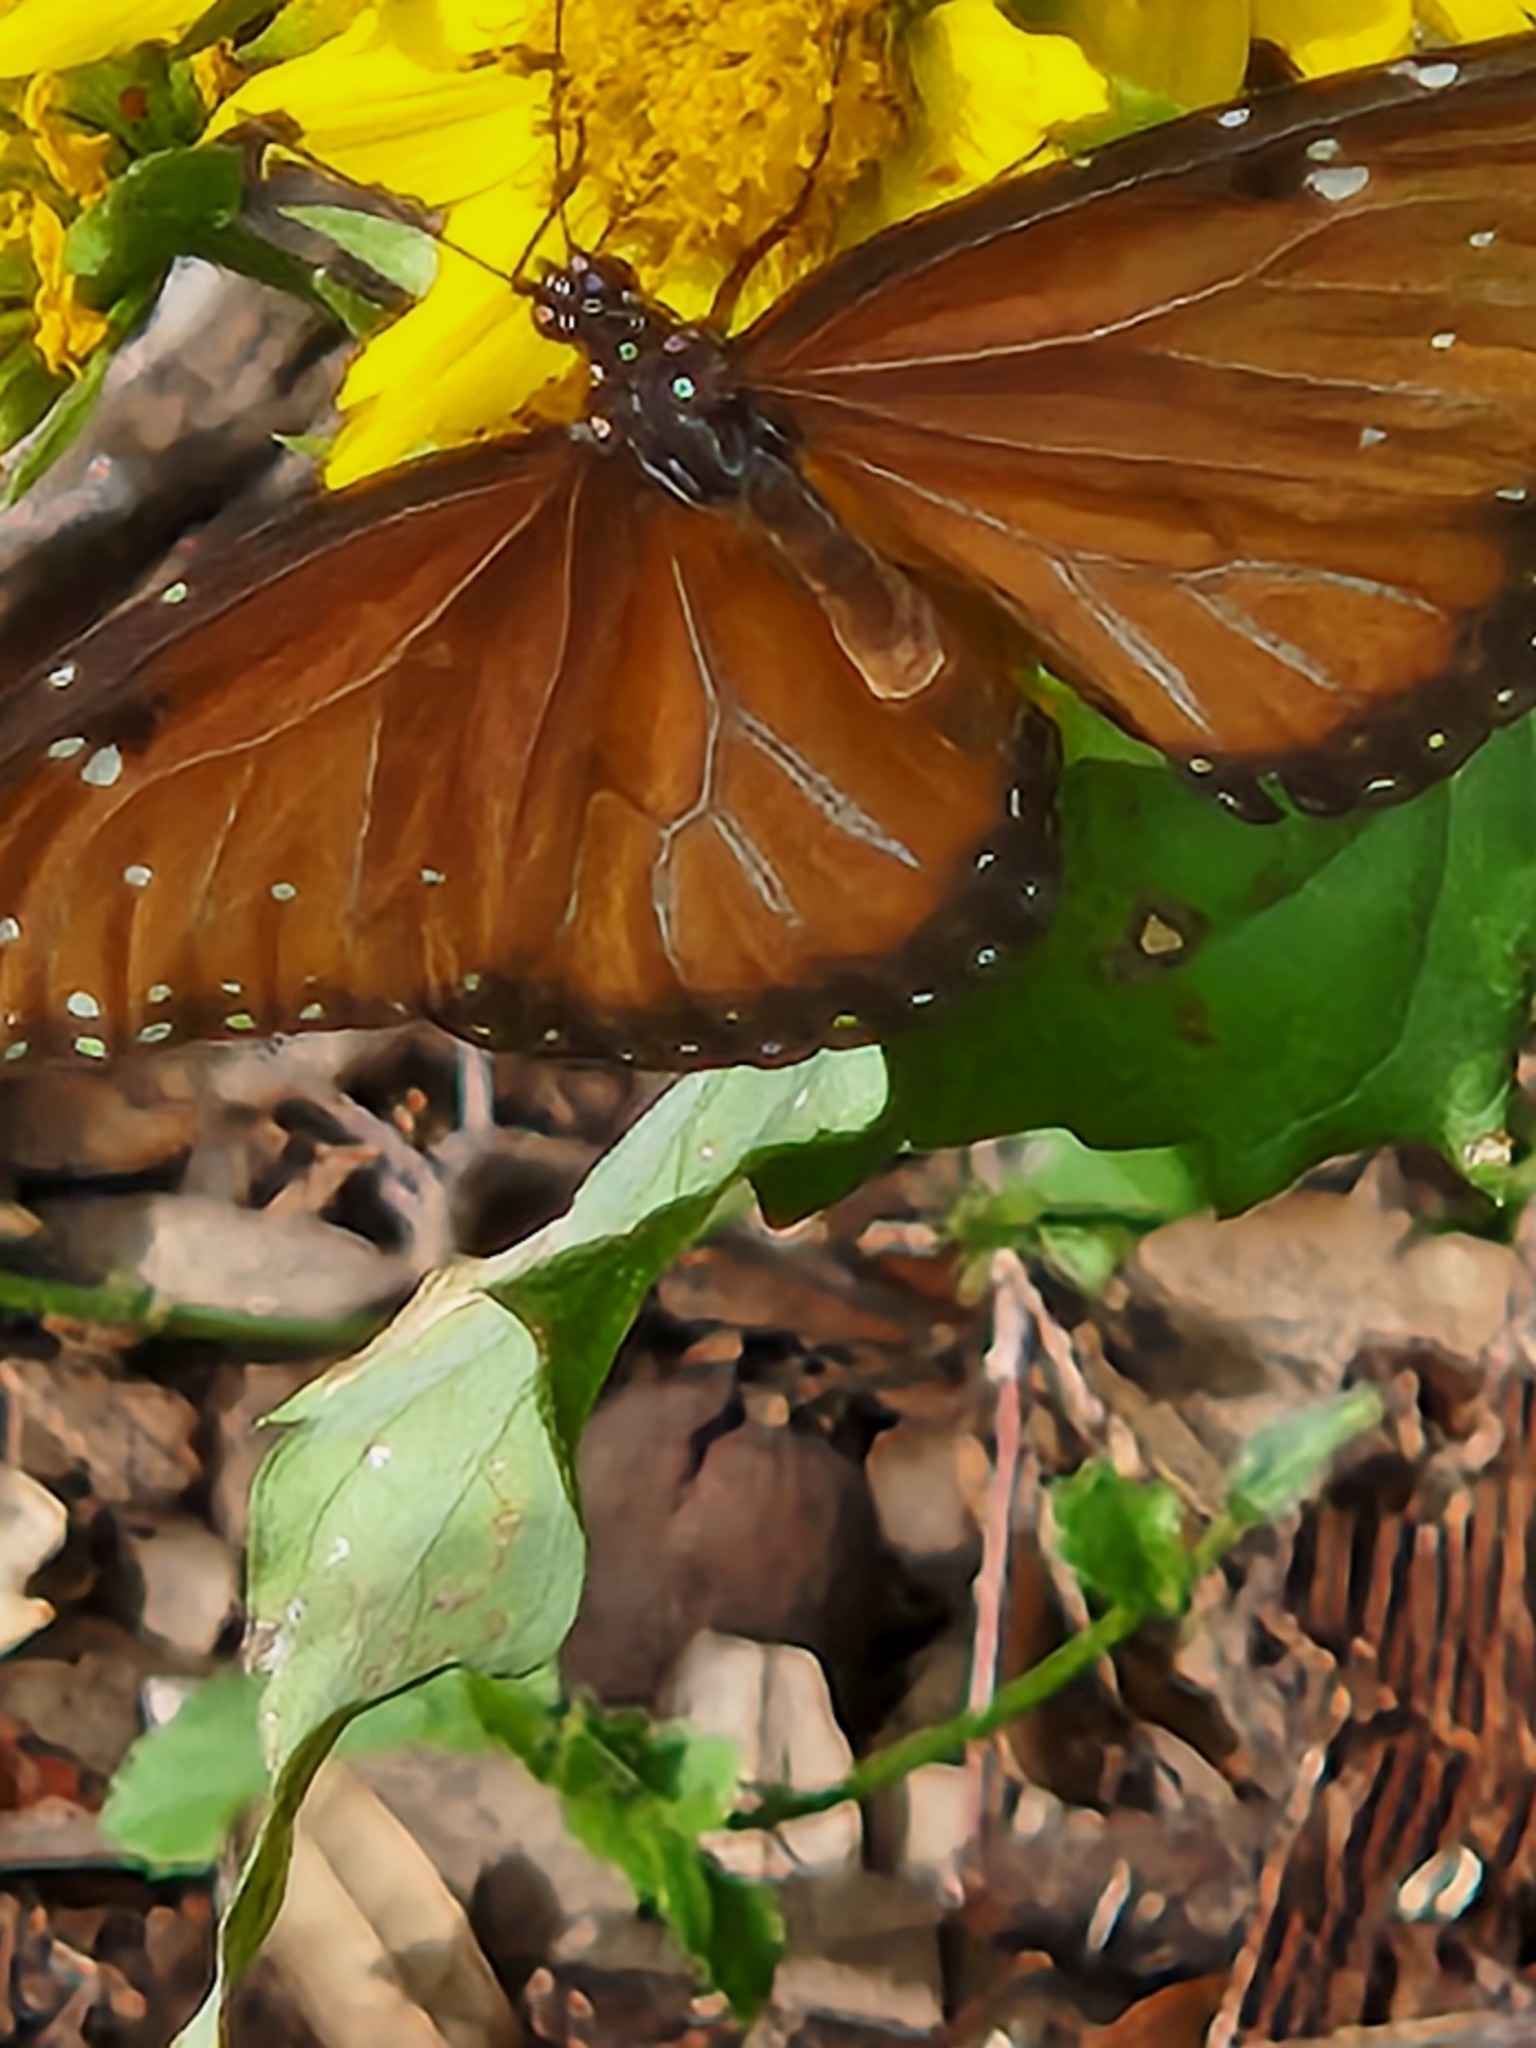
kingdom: Animalia
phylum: Arthropoda
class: Insecta
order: Lepidoptera
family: Nymphalidae
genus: Danaus
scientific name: Danaus gilippus
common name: Queen
